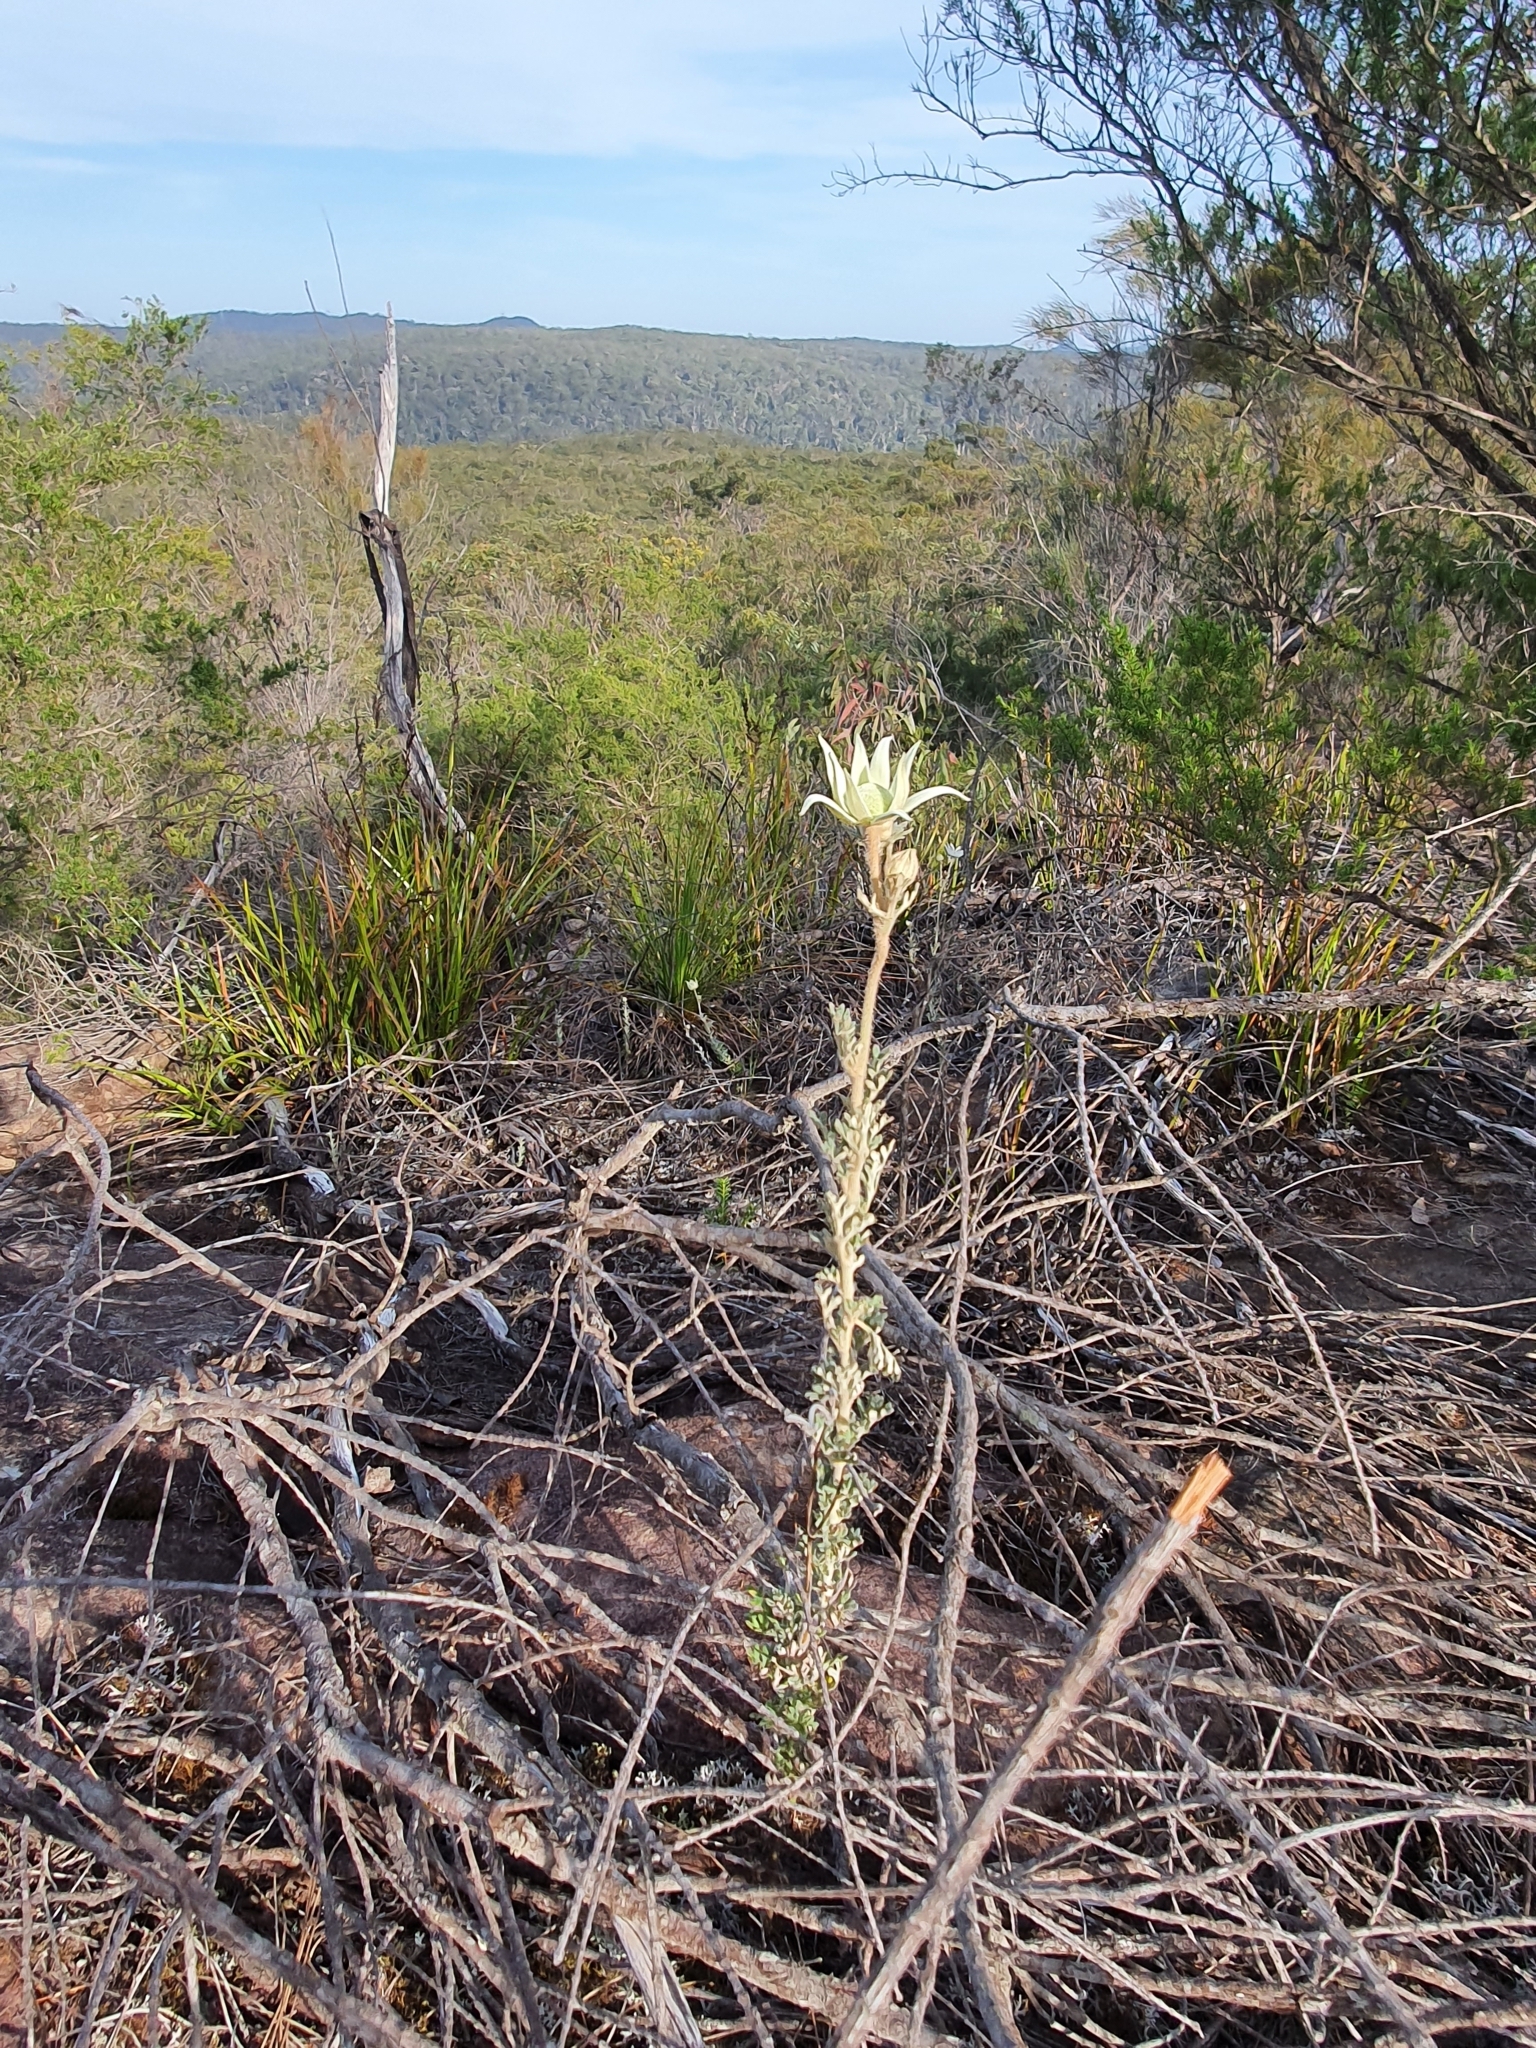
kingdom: Plantae
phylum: Tracheophyta
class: Magnoliopsida
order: Apiales
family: Apiaceae
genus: Actinotus
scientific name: Actinotus helianthi
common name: Flannel-flower
